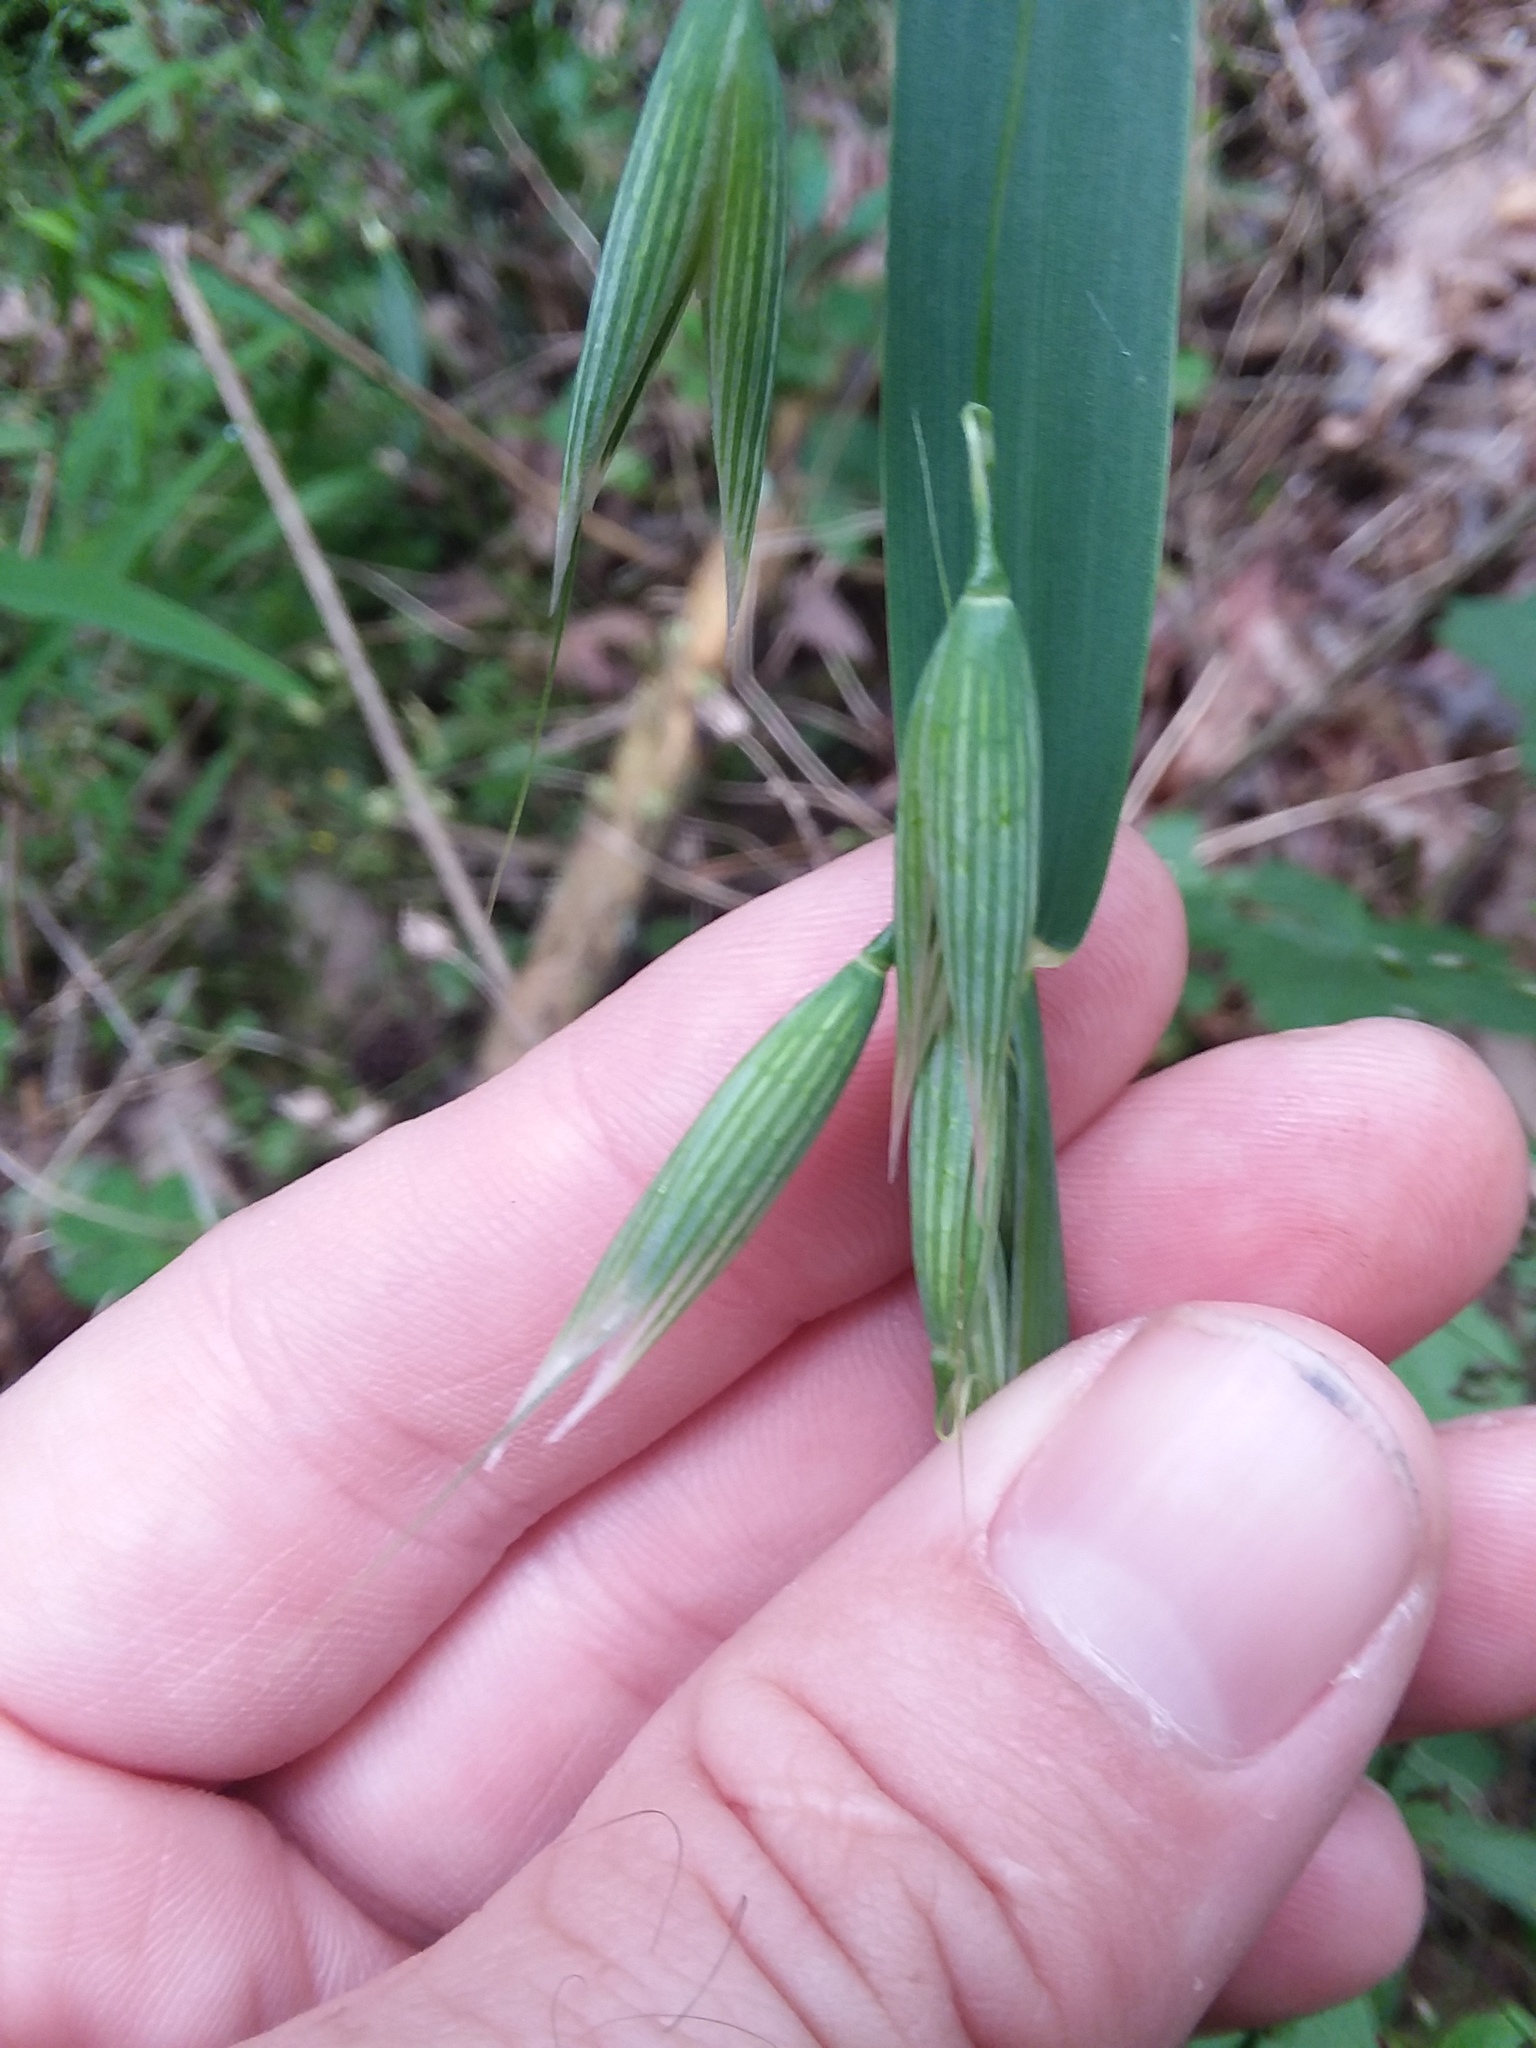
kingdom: Plantae
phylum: Tracheophyta
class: Liliopsida
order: Poales
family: Poaceae
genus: Avena
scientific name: Avena sativa
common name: Oat
